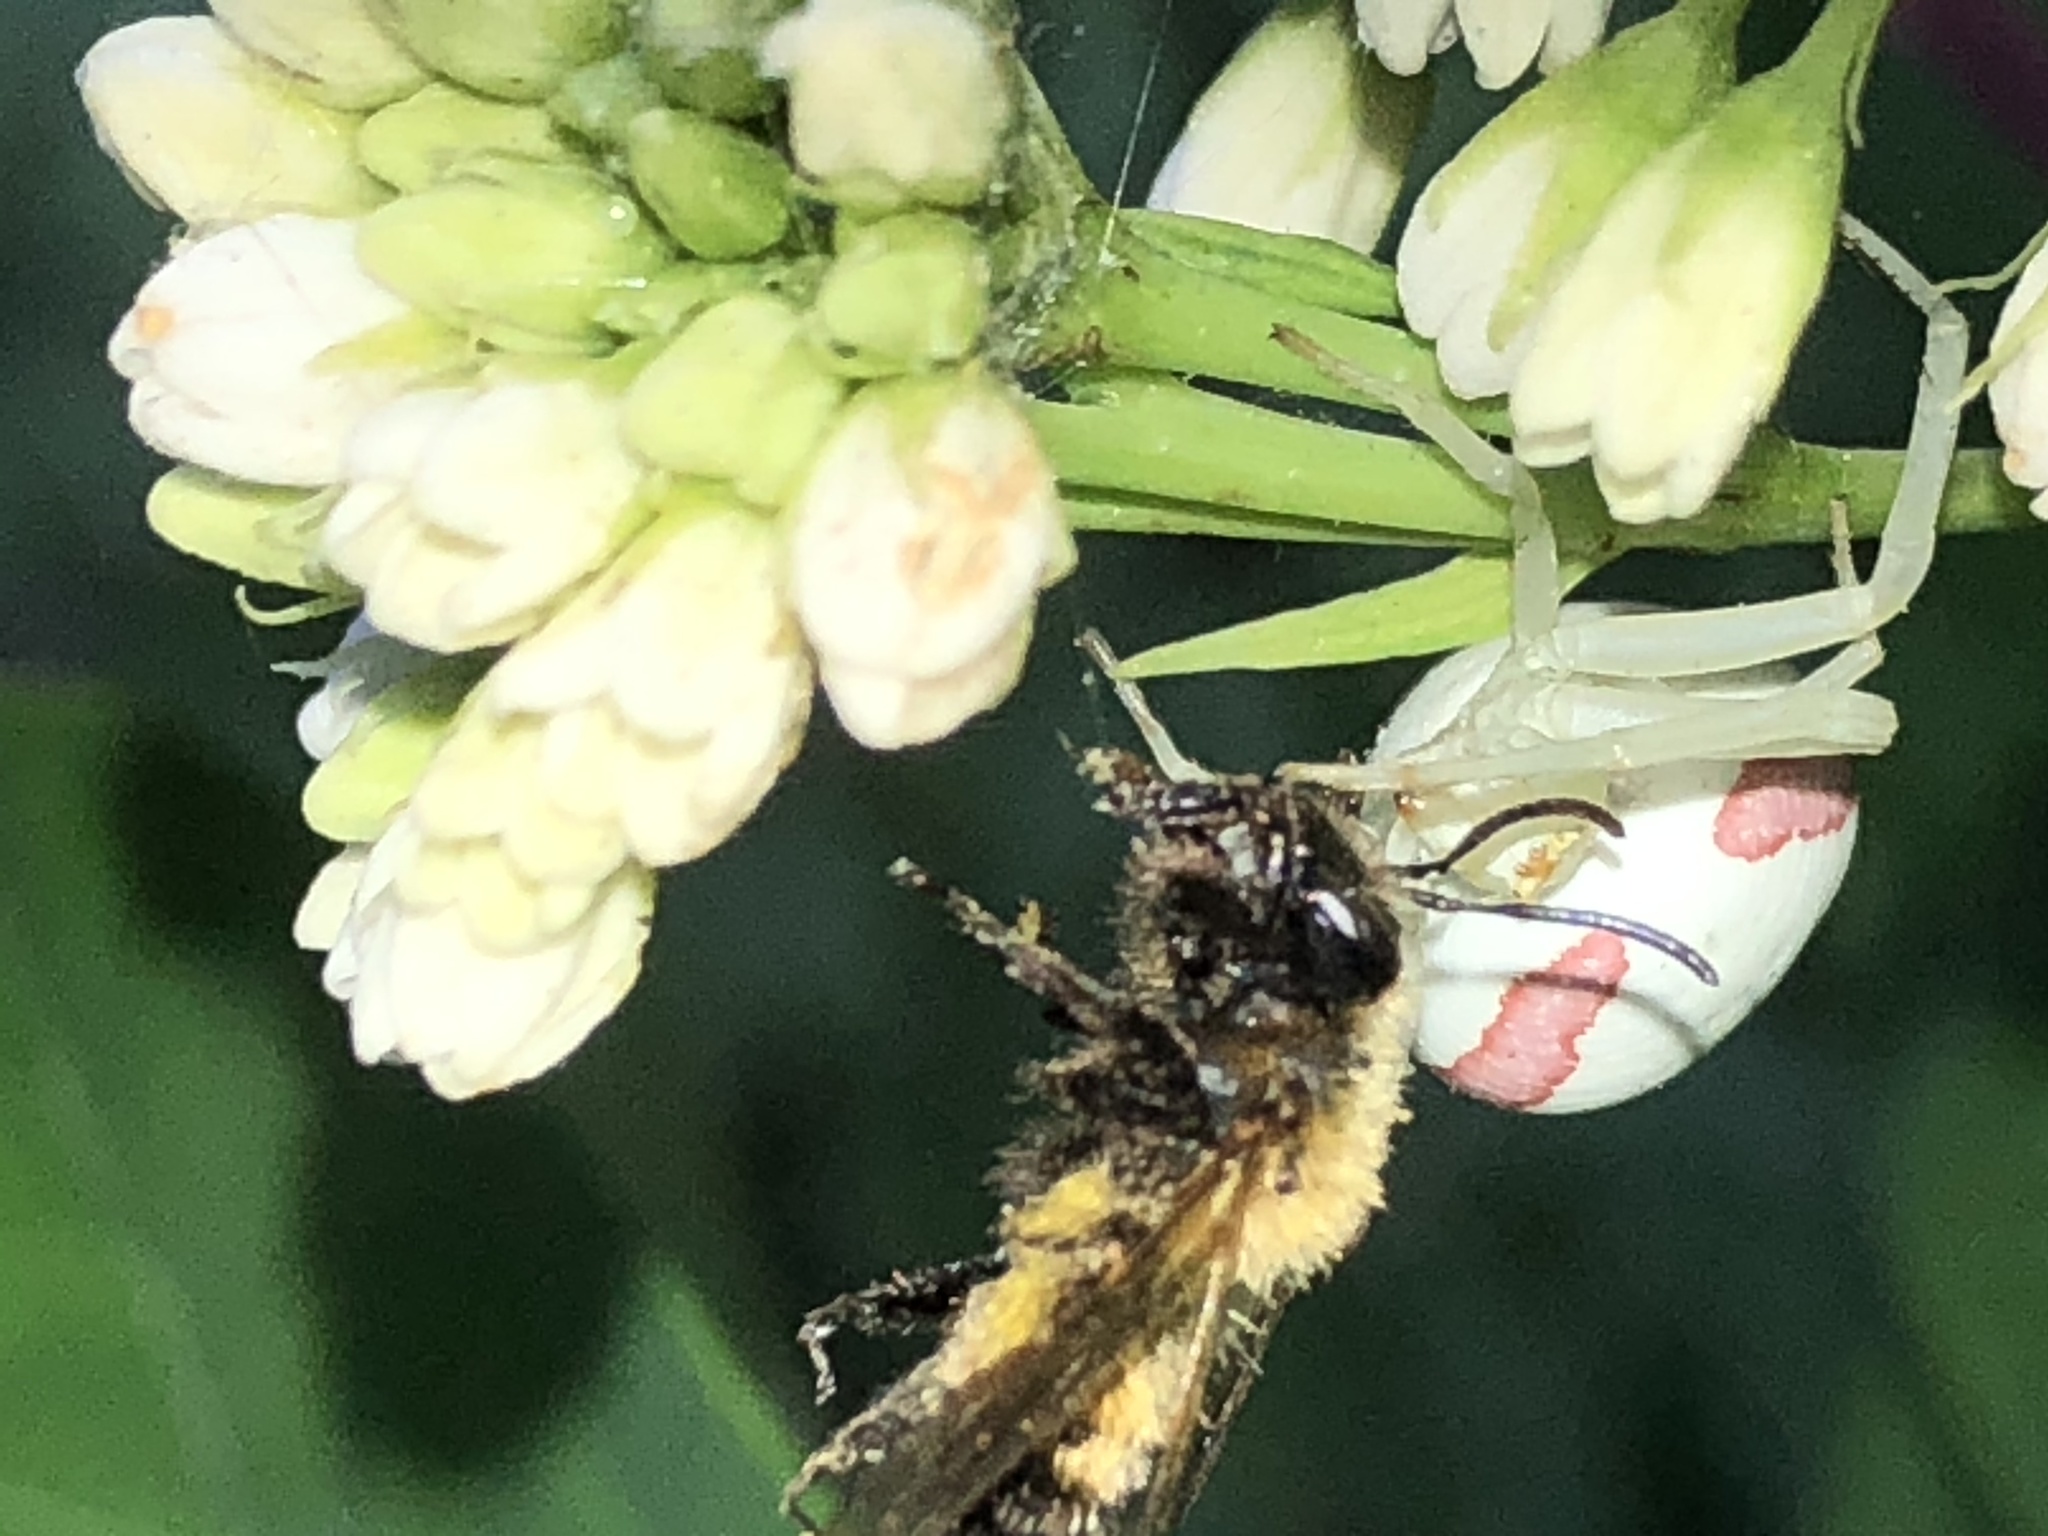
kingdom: Animalia
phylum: Arthropoda
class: Insecta
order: Hymenoptera
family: Andrenidae
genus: Andrena
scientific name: Andrena milwaukeensis
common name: Milwaukee mining bee
